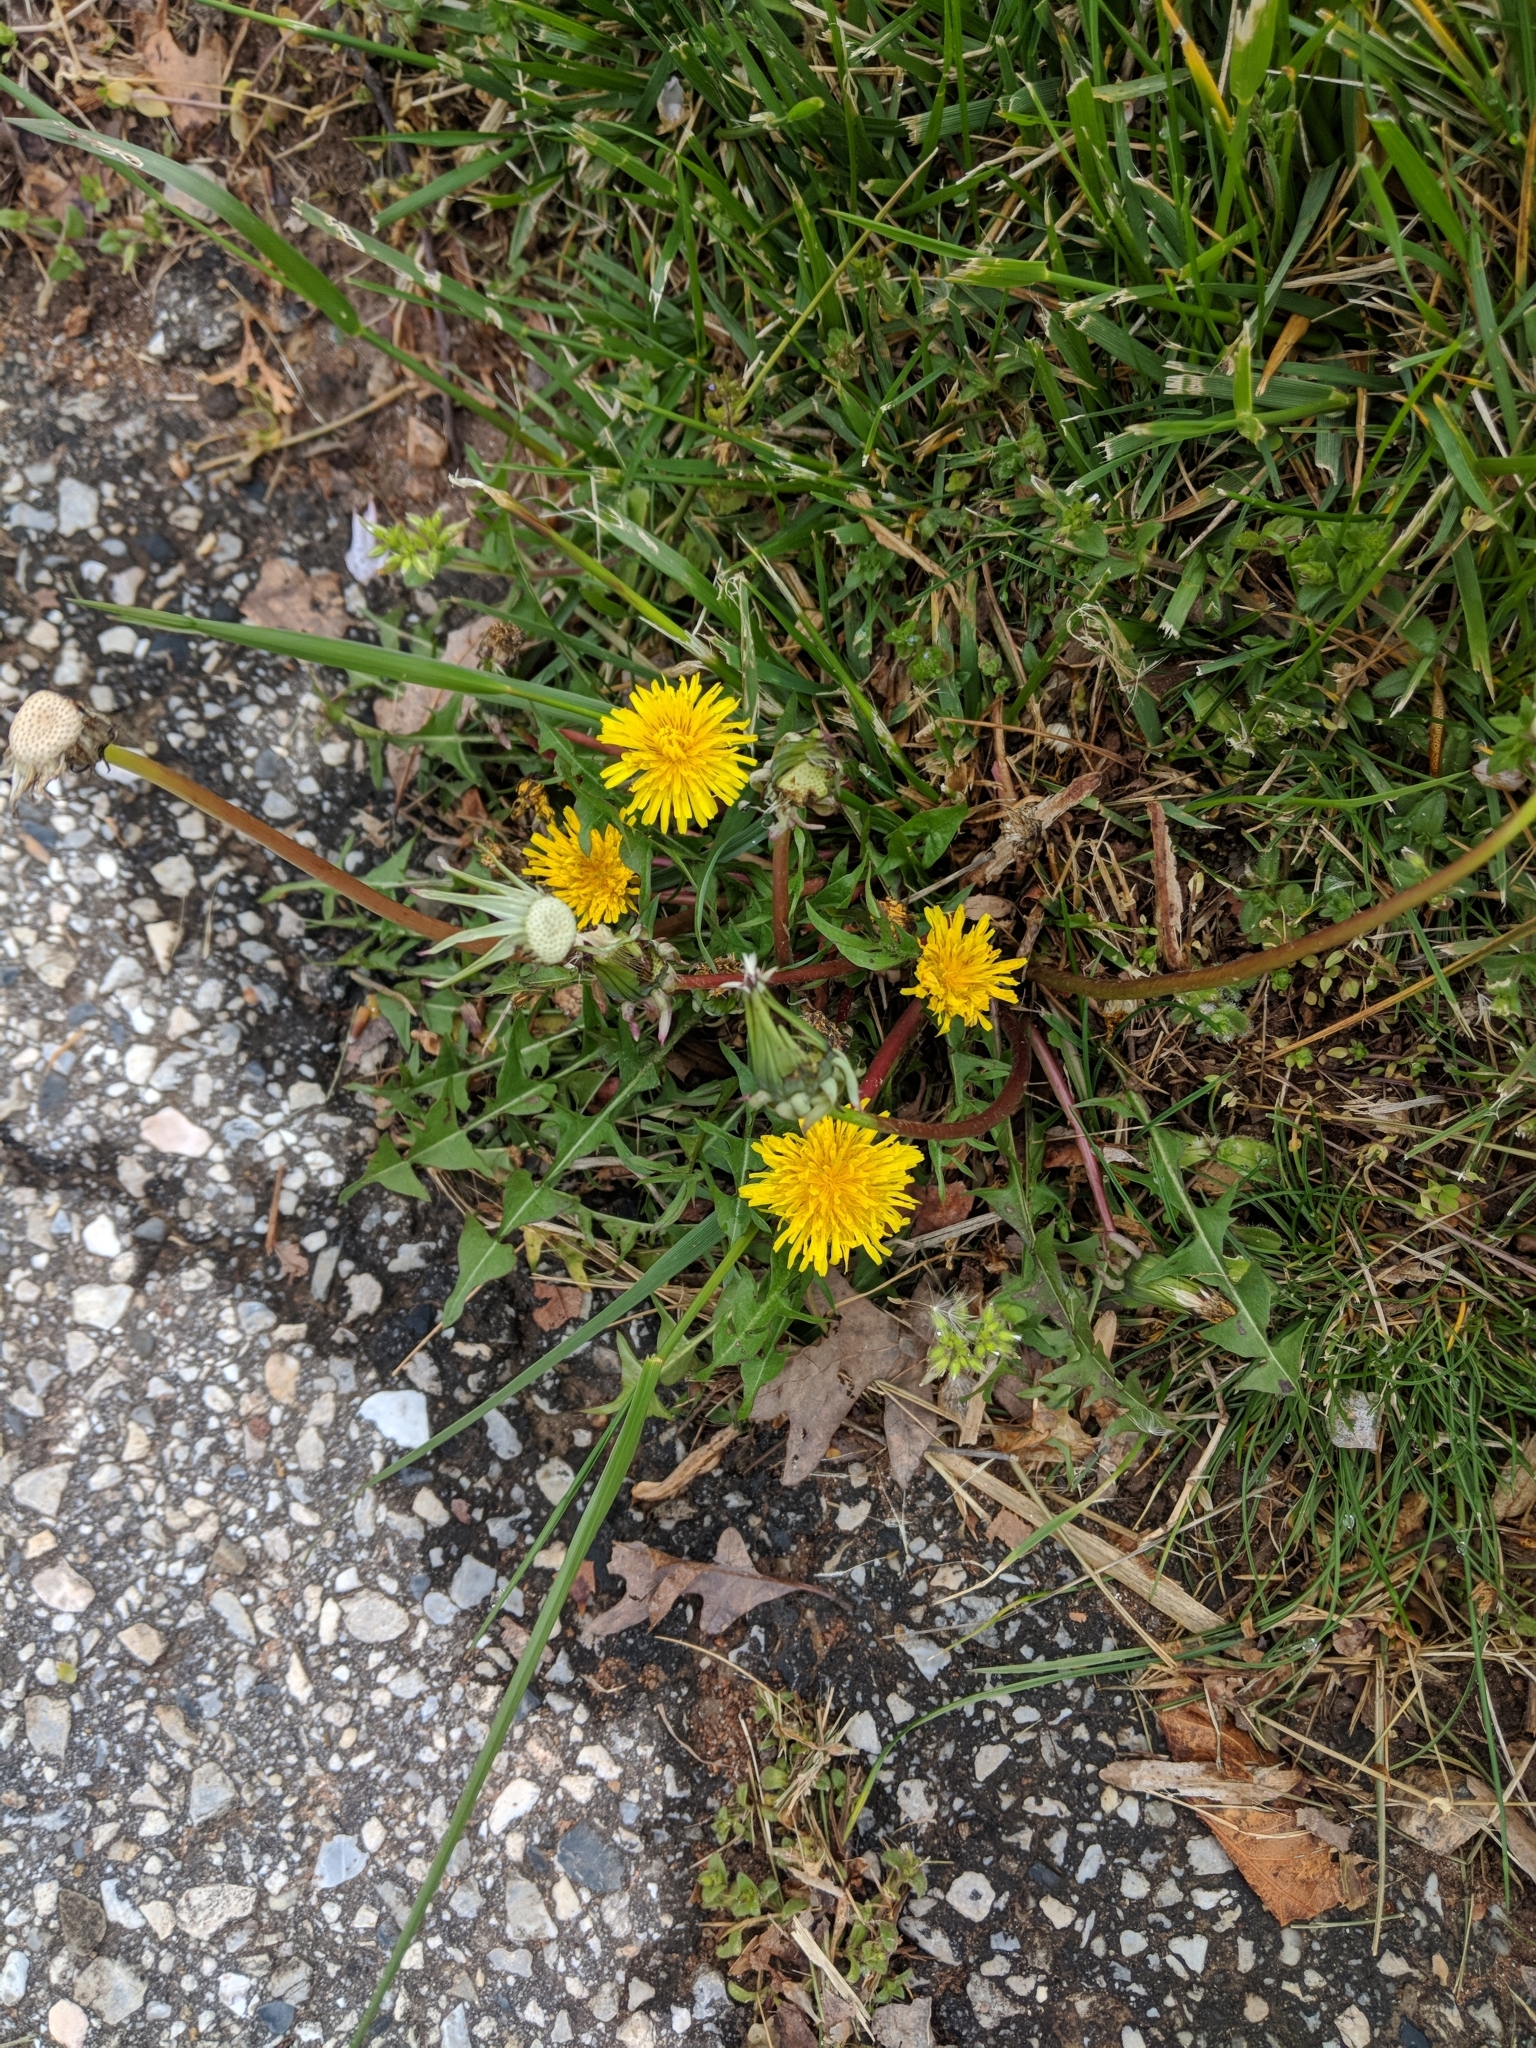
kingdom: Plantae
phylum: Tracheophyta
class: Magnoliopsida
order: Asterales
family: Asteraceae
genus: Taraxacum
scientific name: Taraxacum officinale
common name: Common dandelion
